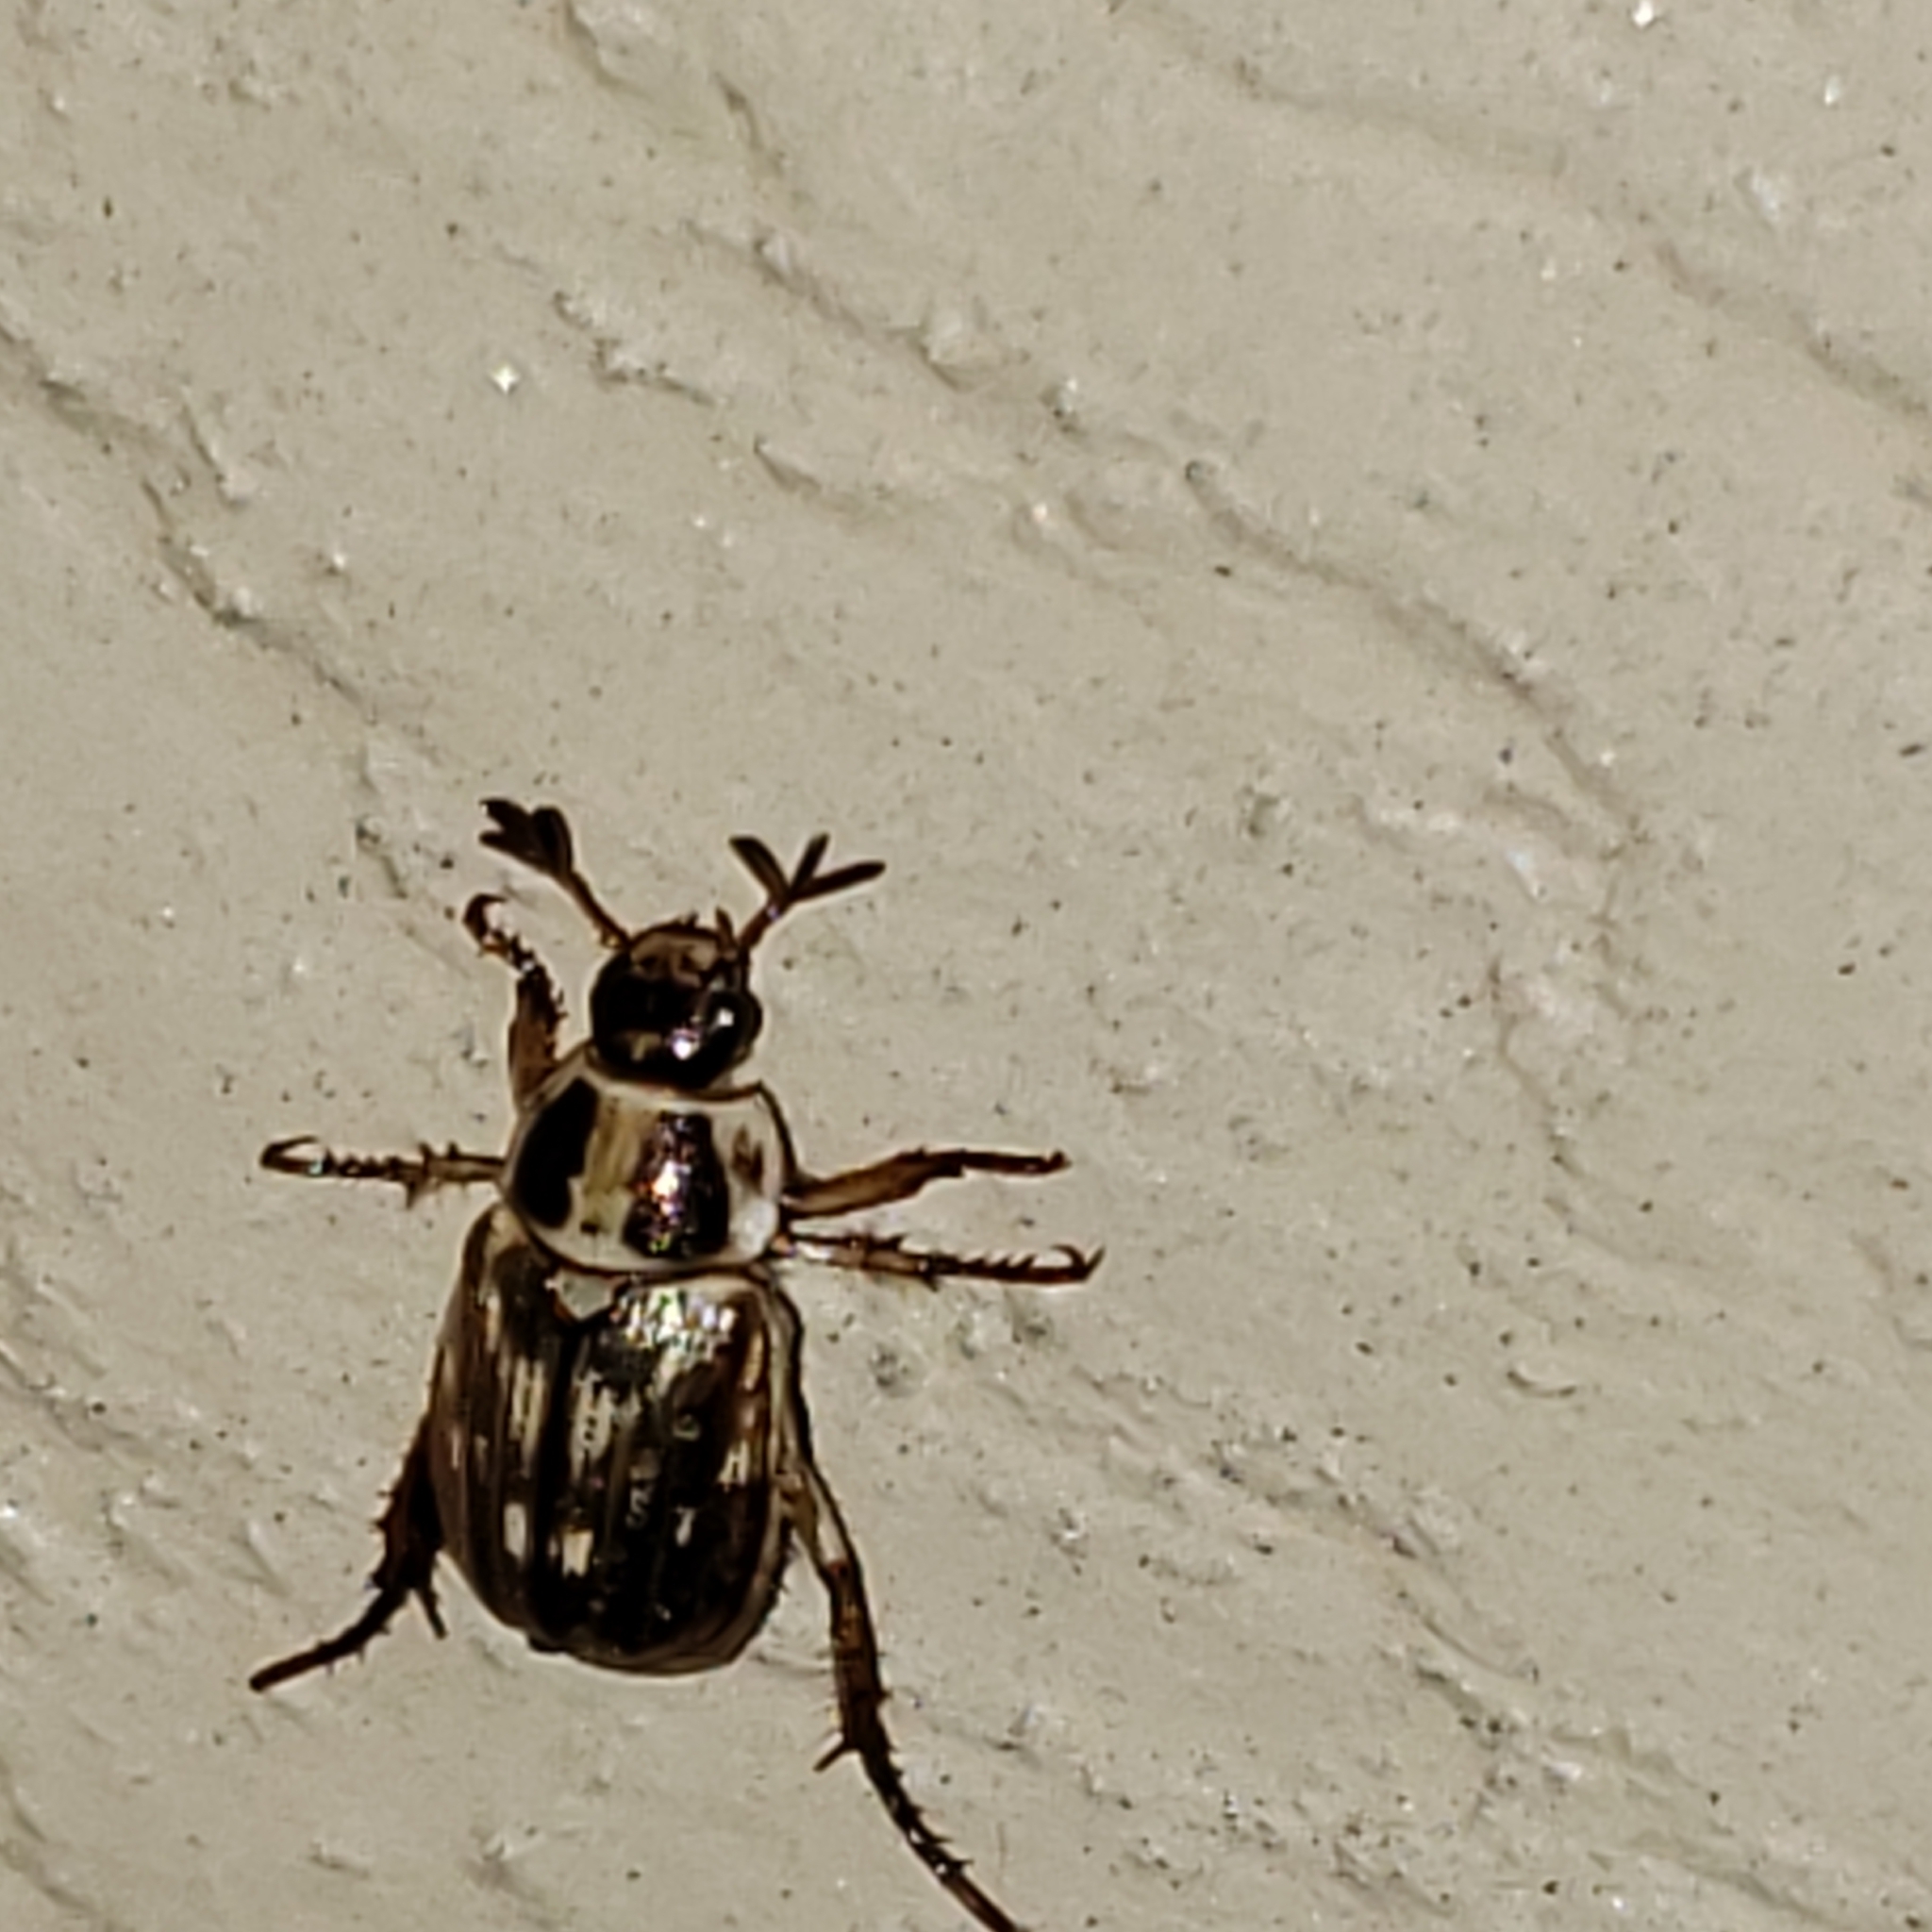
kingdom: Animalia
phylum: Arthropoda
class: Insecta
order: Coleoptera
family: Scarabaeidae
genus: Exomala
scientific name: Exomala orientalis
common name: Oriental beetle
